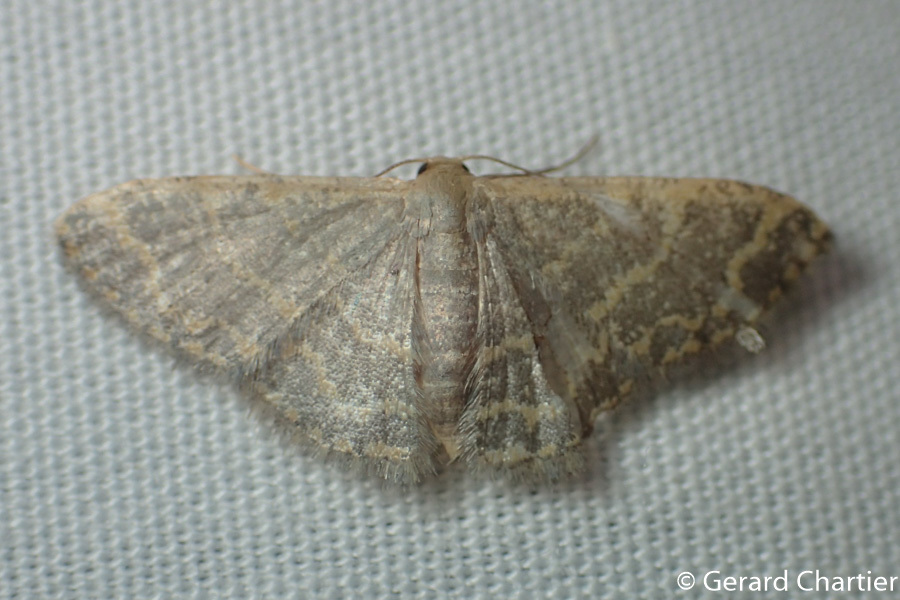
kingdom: Animalia
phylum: Arthropoda
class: Insecta
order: Lepidoptera
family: Geometridae
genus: Idaea
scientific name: Idaea costiguttata
